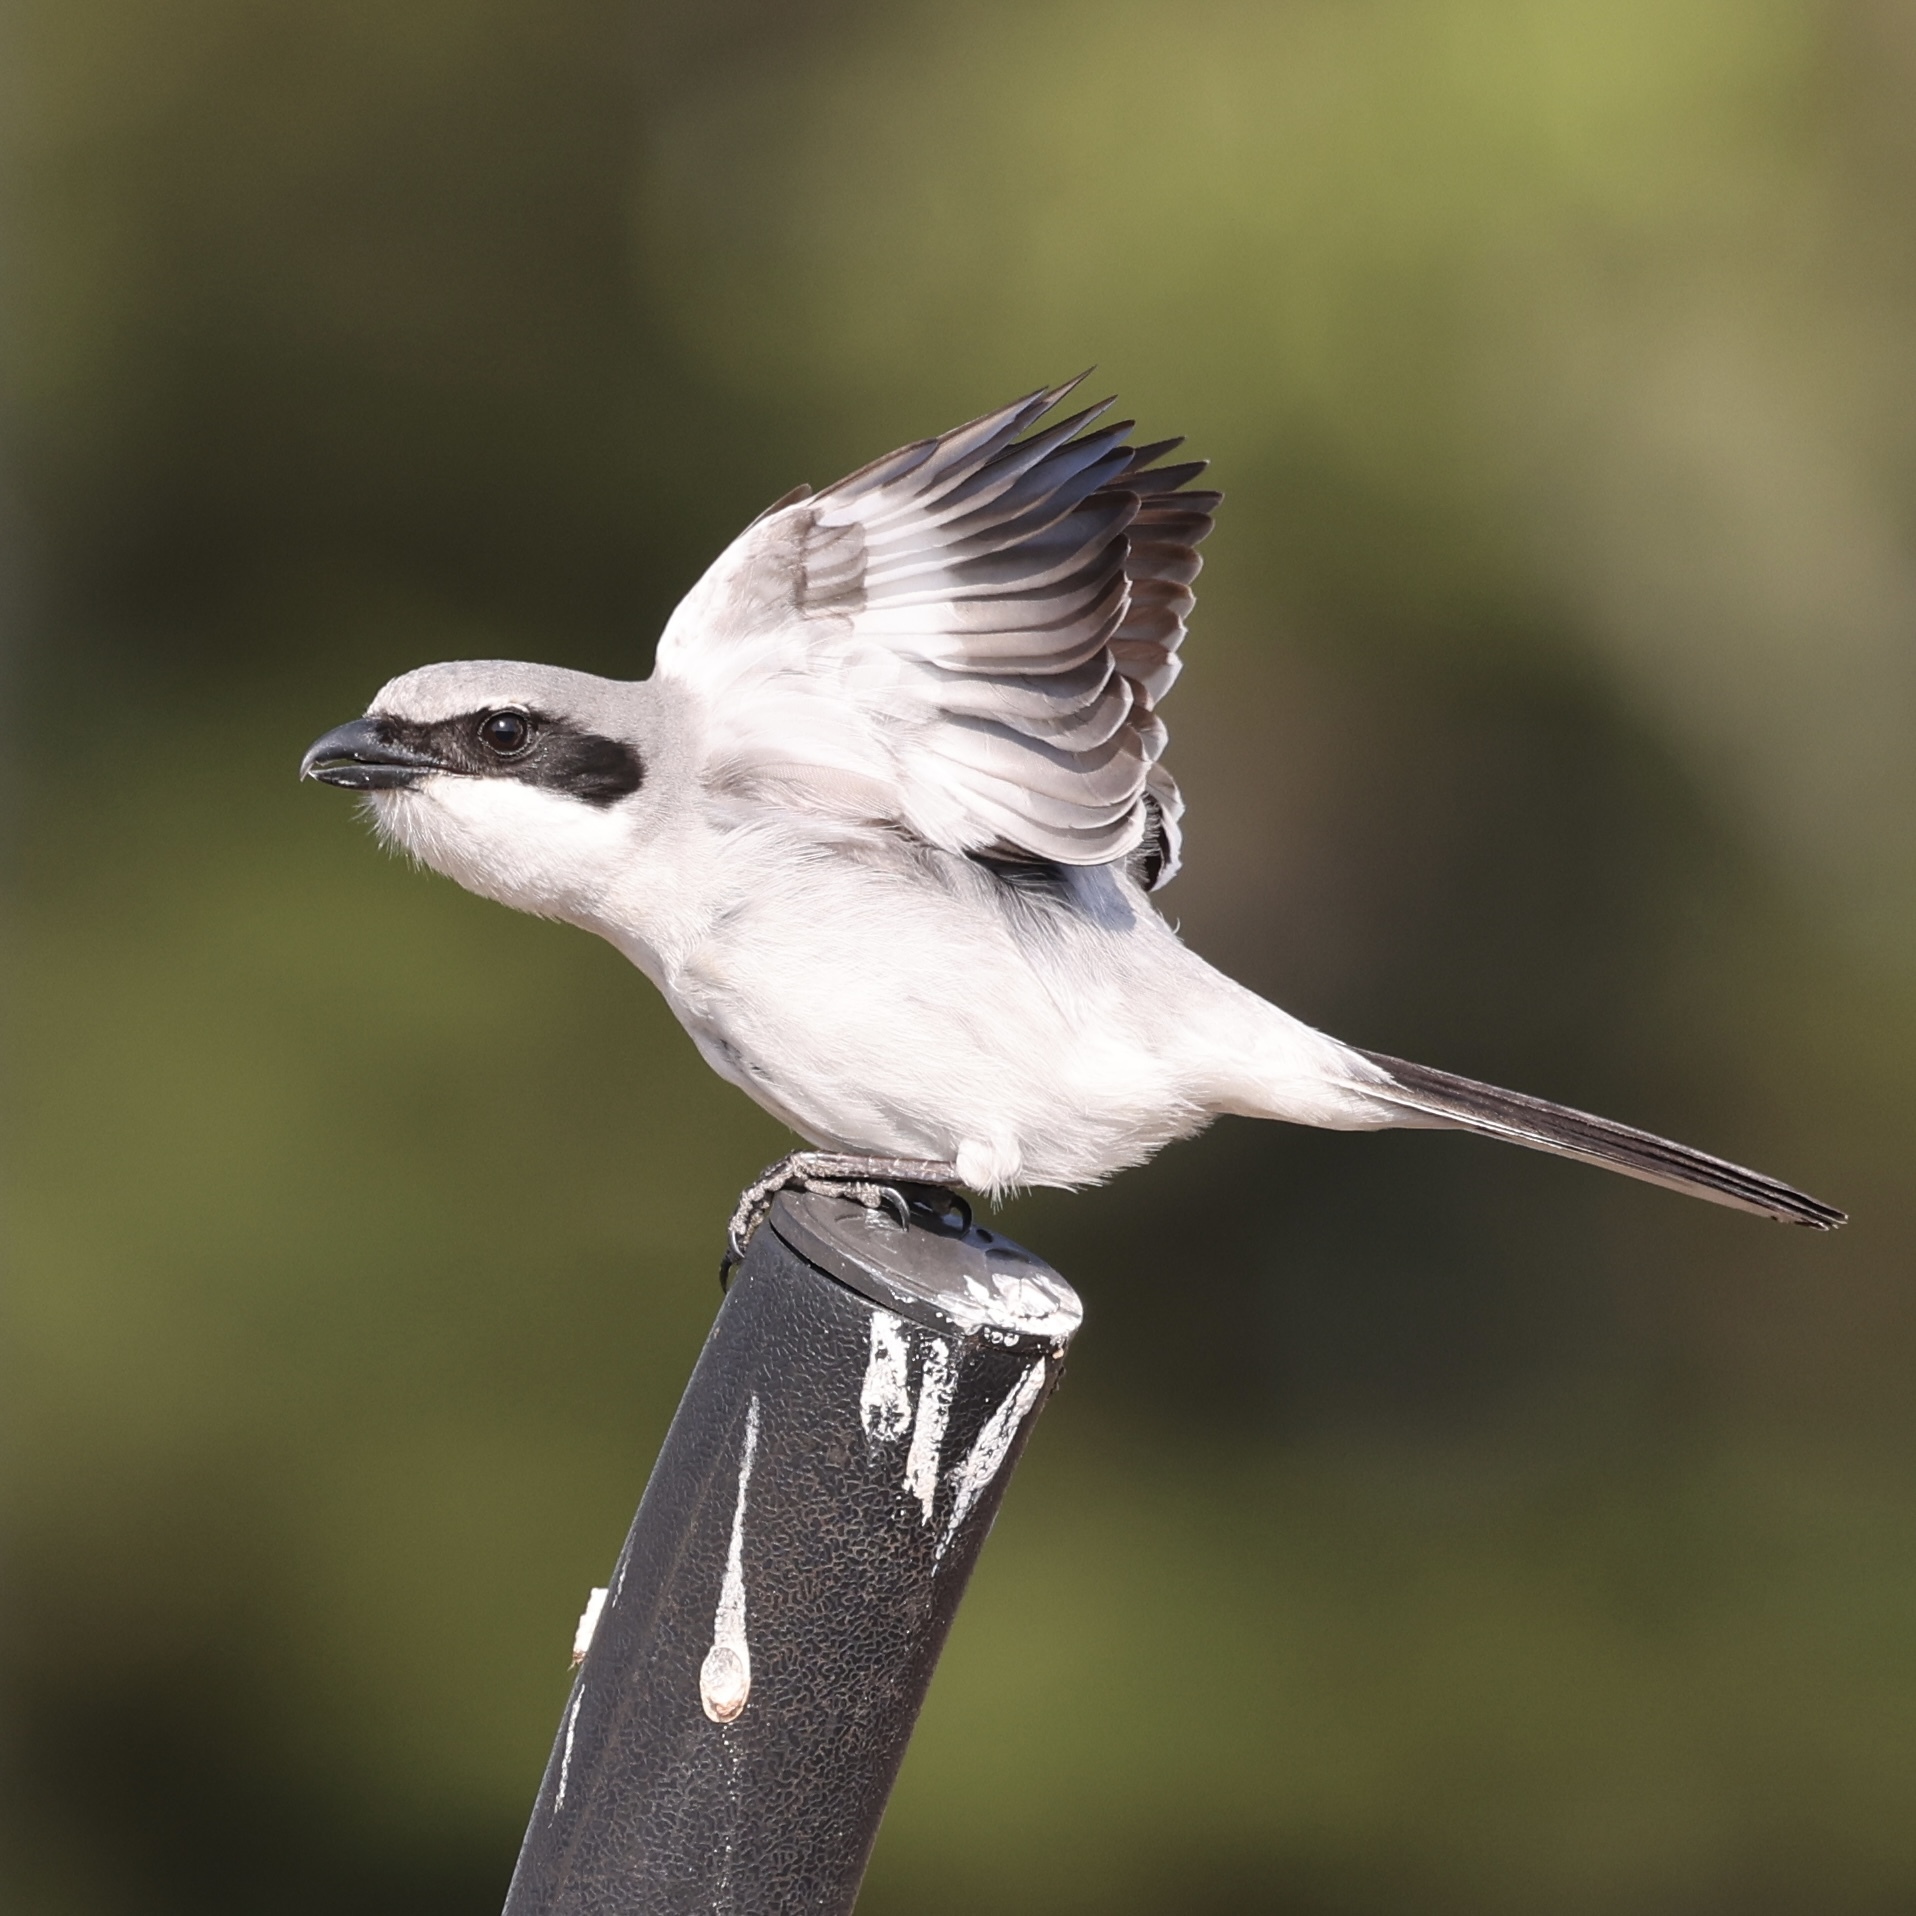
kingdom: Animalia
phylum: Chordata
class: Aves
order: Passeriformes
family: Laniidae
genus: Lanius
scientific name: Lanius ludovicianus
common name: Loggerhead shrike
